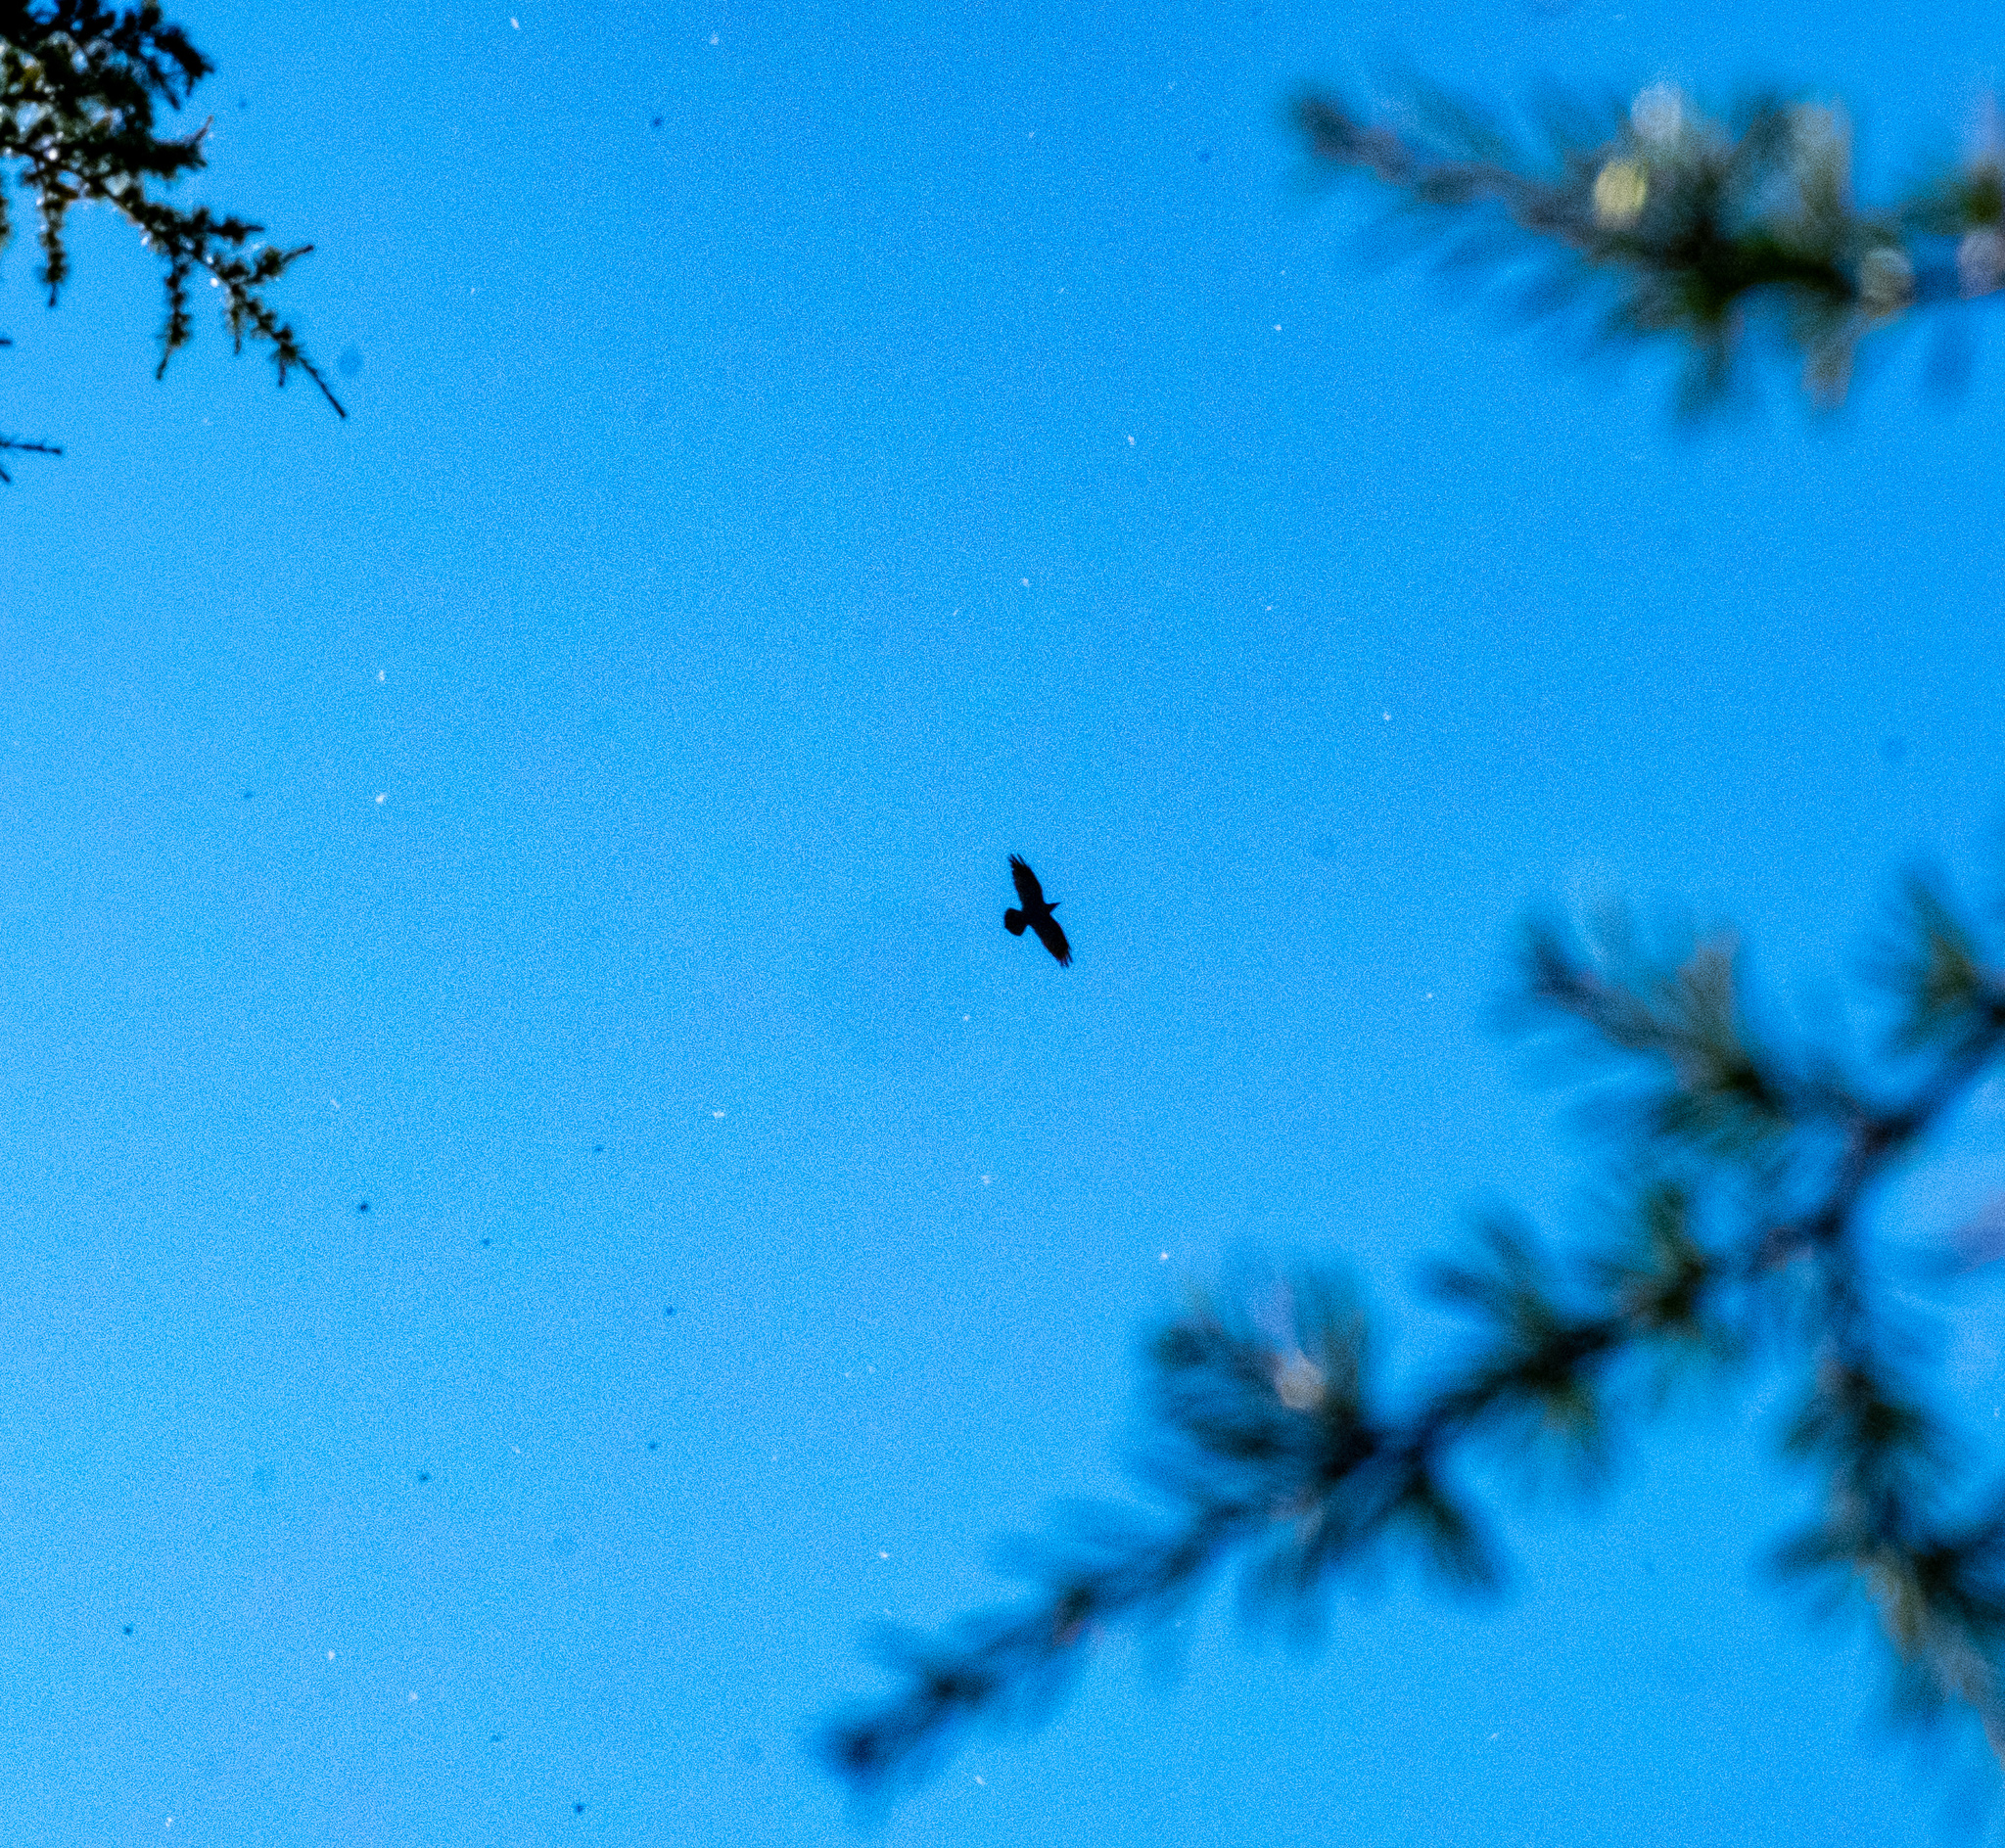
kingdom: Animalia
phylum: Chordata
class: Aves
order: Passeriformes
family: Corvidae
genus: Corvus
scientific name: Corvus corax
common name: Common raven
